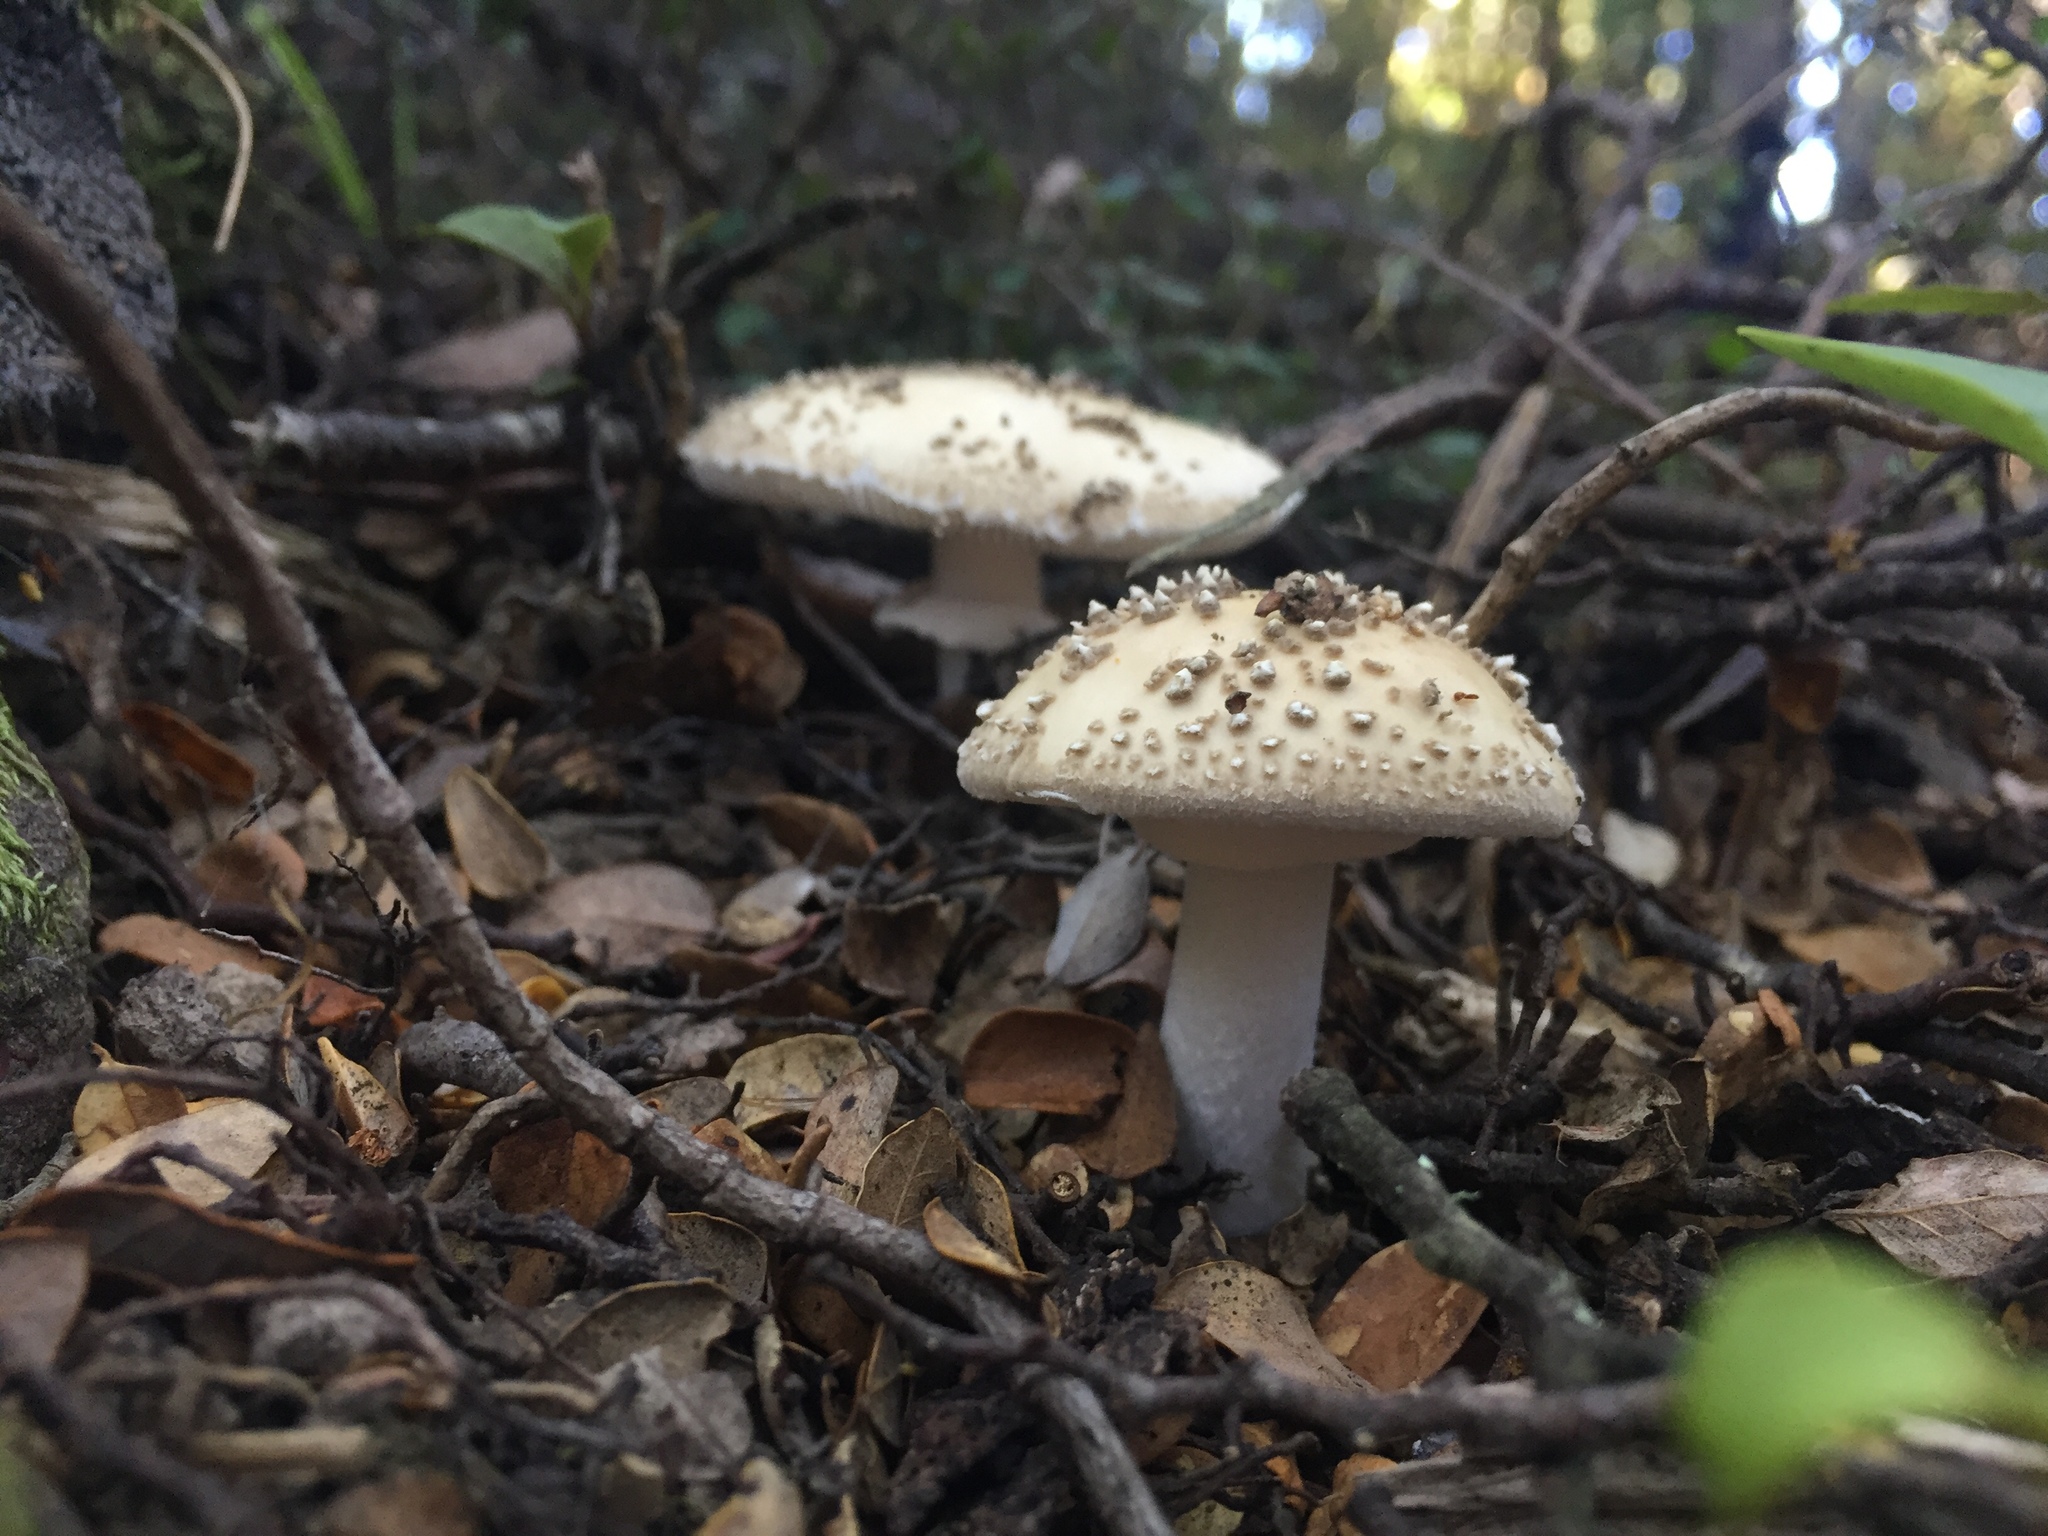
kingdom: Fungi
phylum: Basidiomycota
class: Agaricomycetes
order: Agaricales
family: Amanitaceae
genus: Amanita
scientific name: Amanita australis
